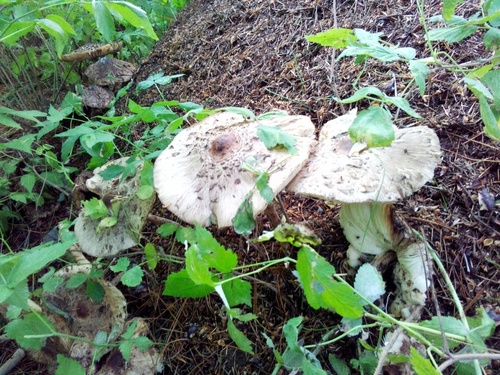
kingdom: Fungi
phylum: Basidiomycota
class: Agaricomycetes
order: Agaricales
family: Agaricaceae
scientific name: Agaricaceae
